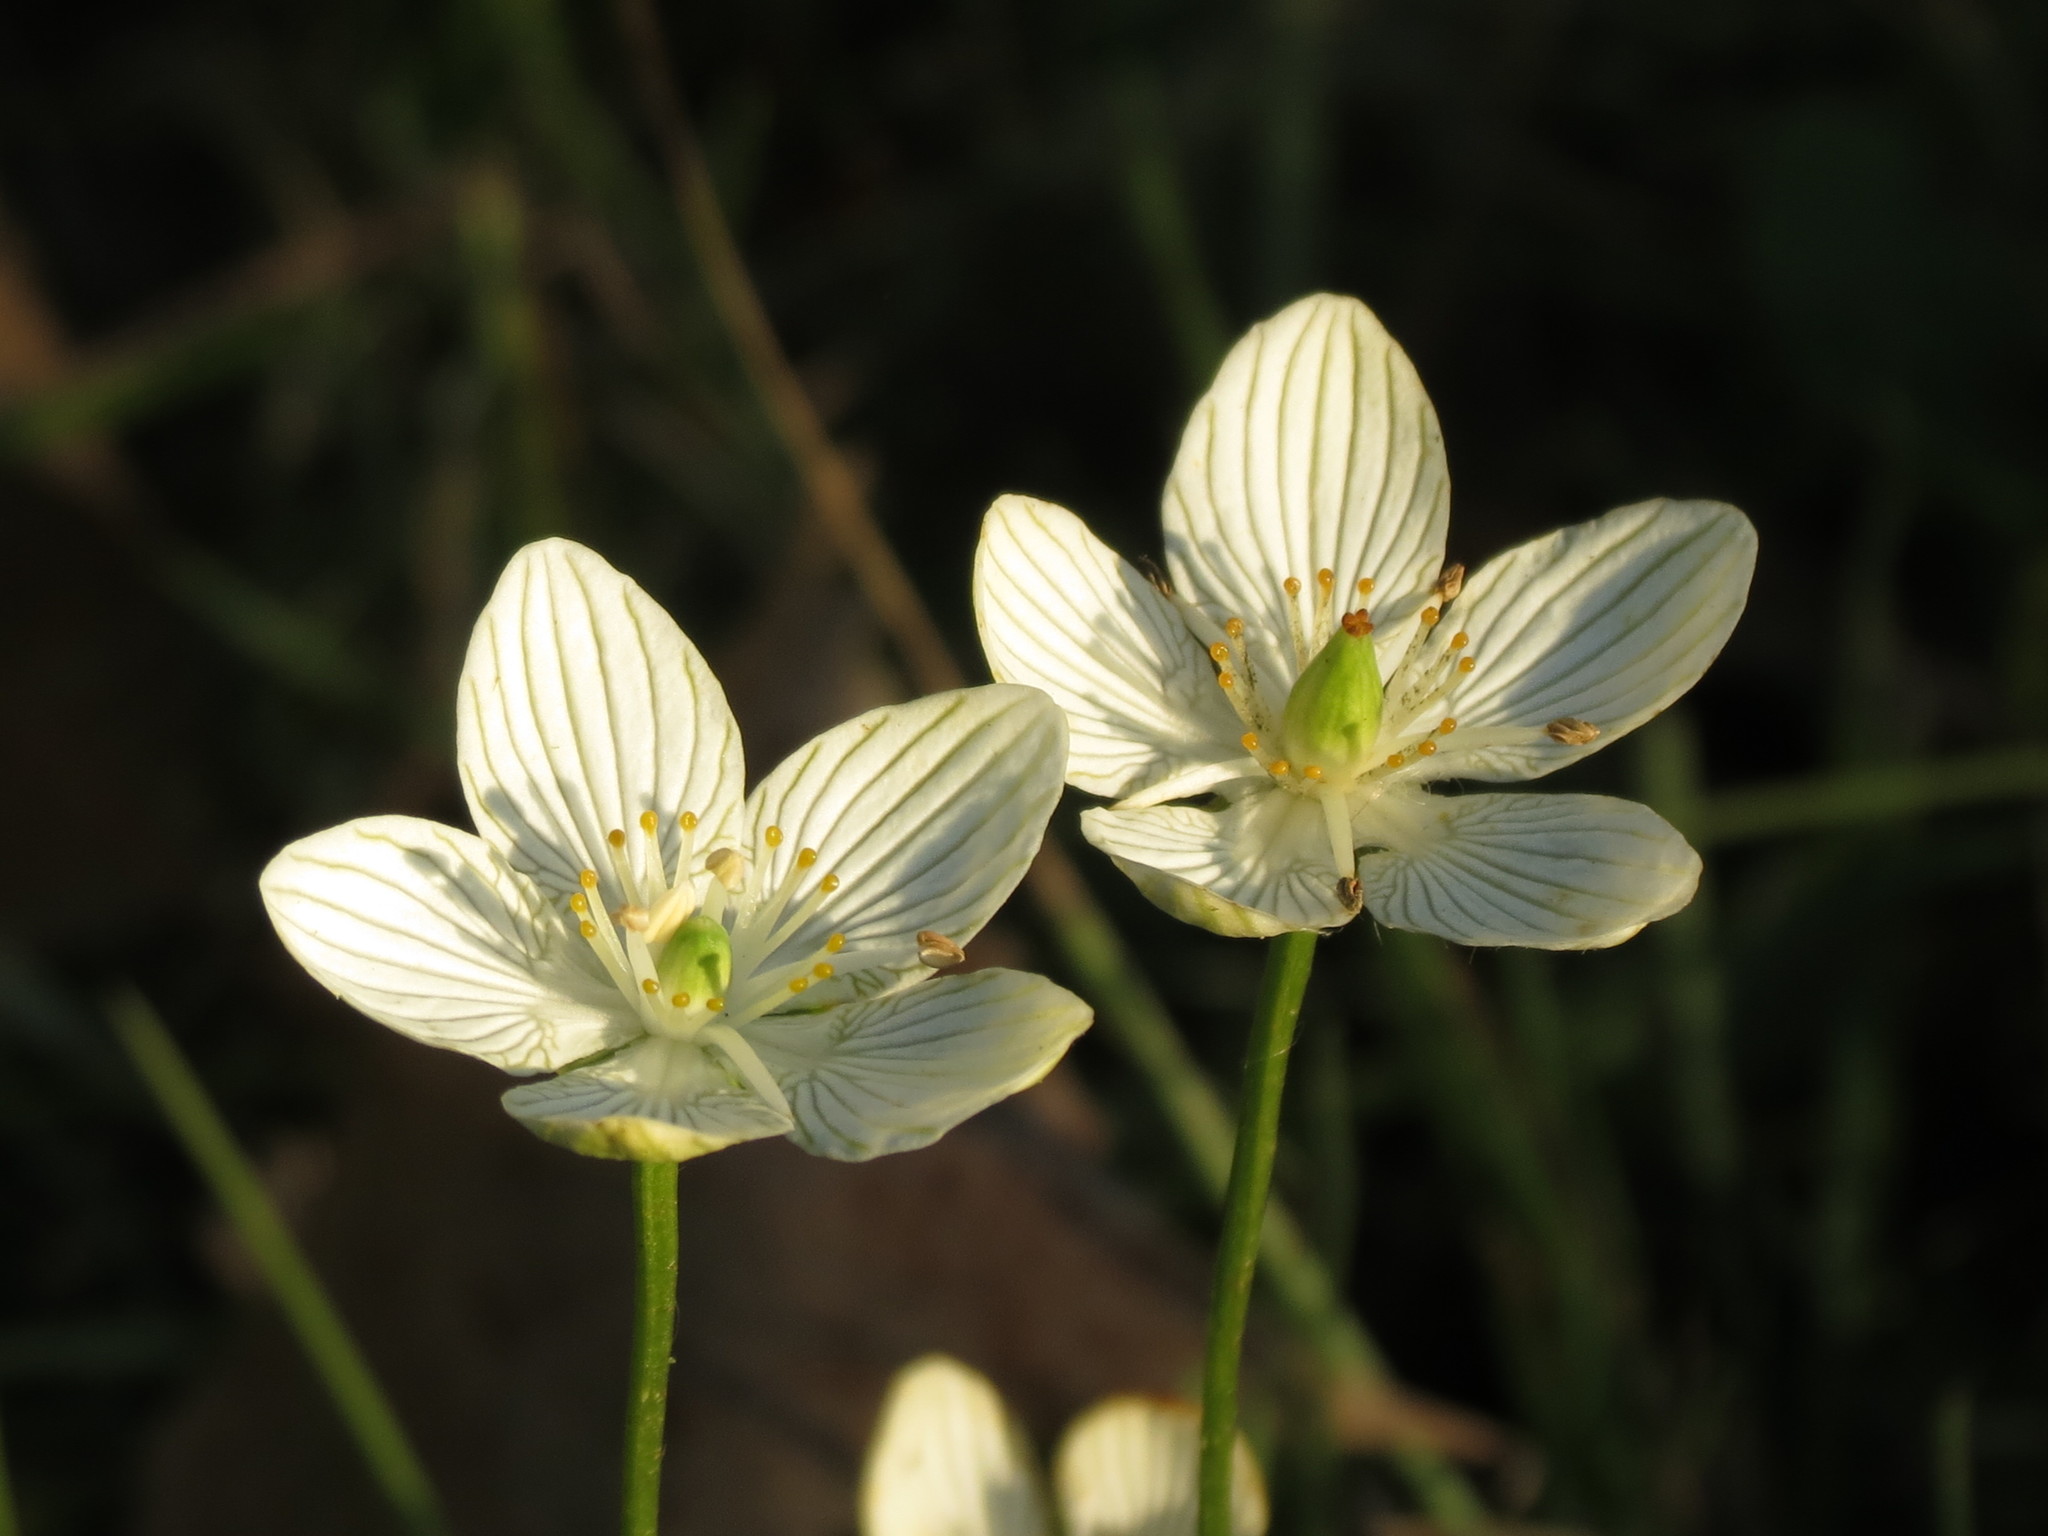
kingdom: Plantae
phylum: Tracheophyta
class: Magnoliopsida
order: Celastrales
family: Parnassiaceae
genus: Parnassia
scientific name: Parnassia glauca
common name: American grass-of-parnassus
